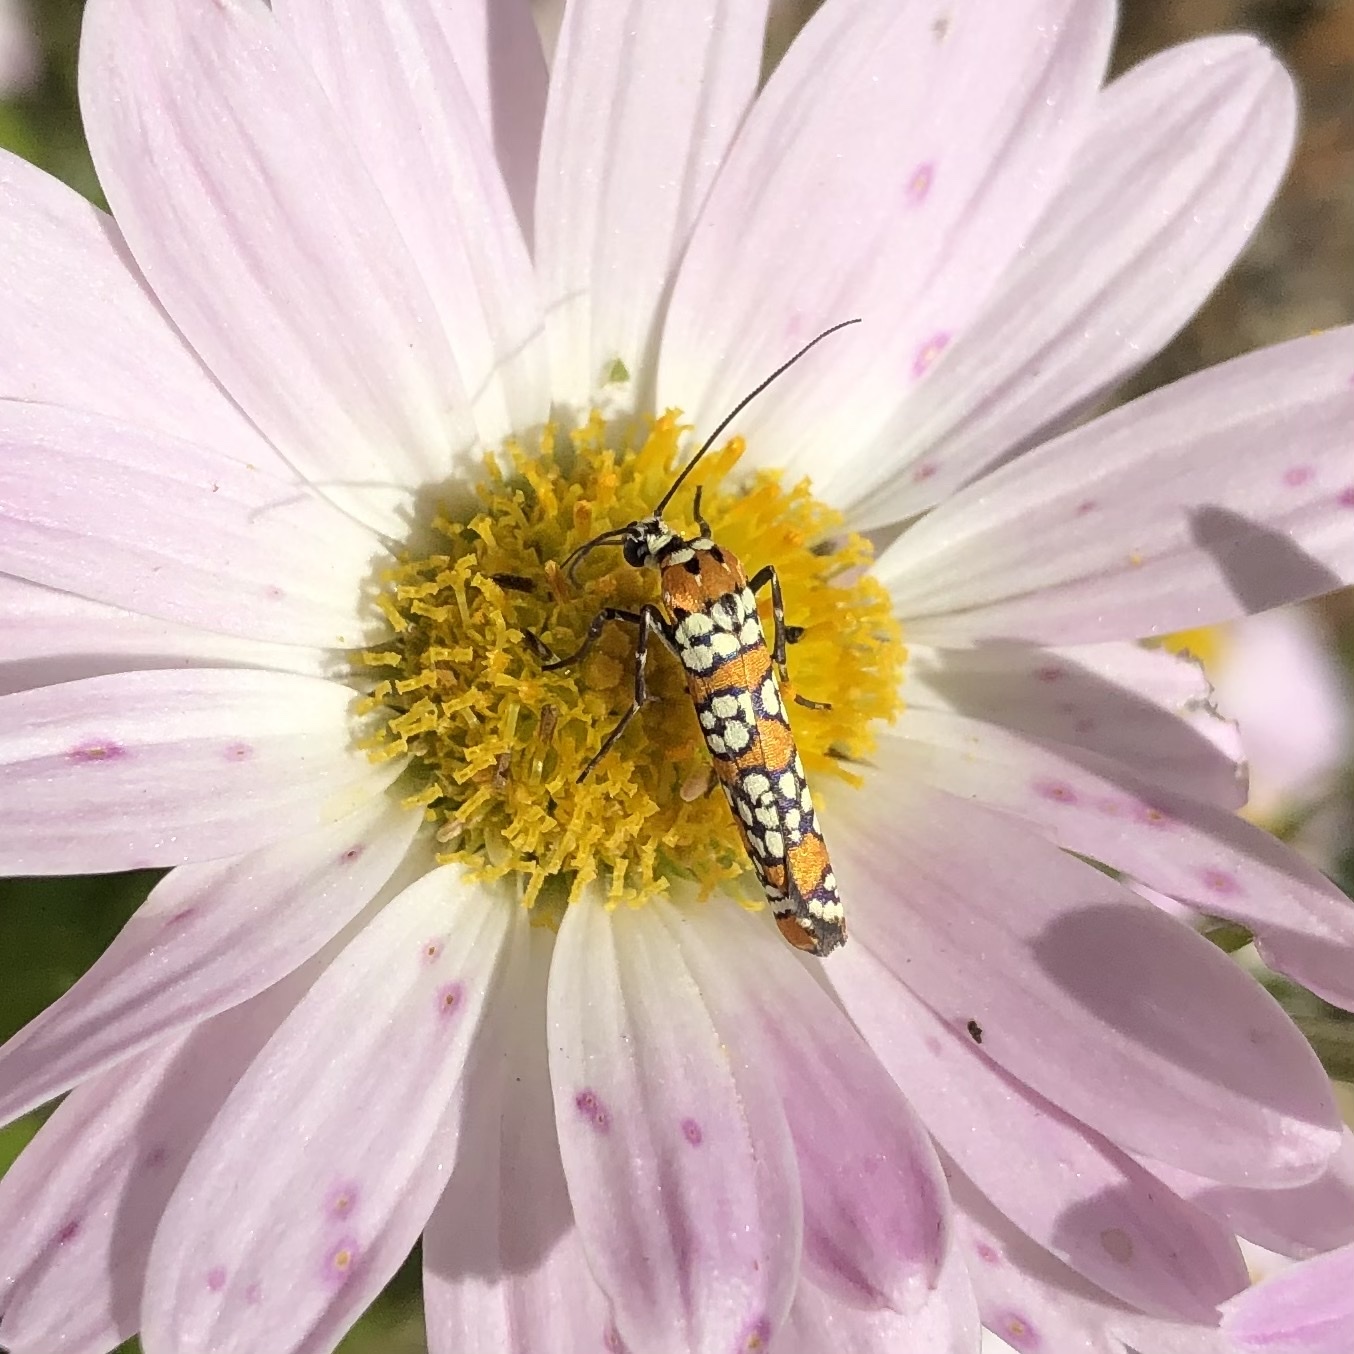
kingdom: Animalia
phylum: Arthropoda
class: Insecta
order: Lepidoptera
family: Attevidae
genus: Atteva
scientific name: Atteva punctella
